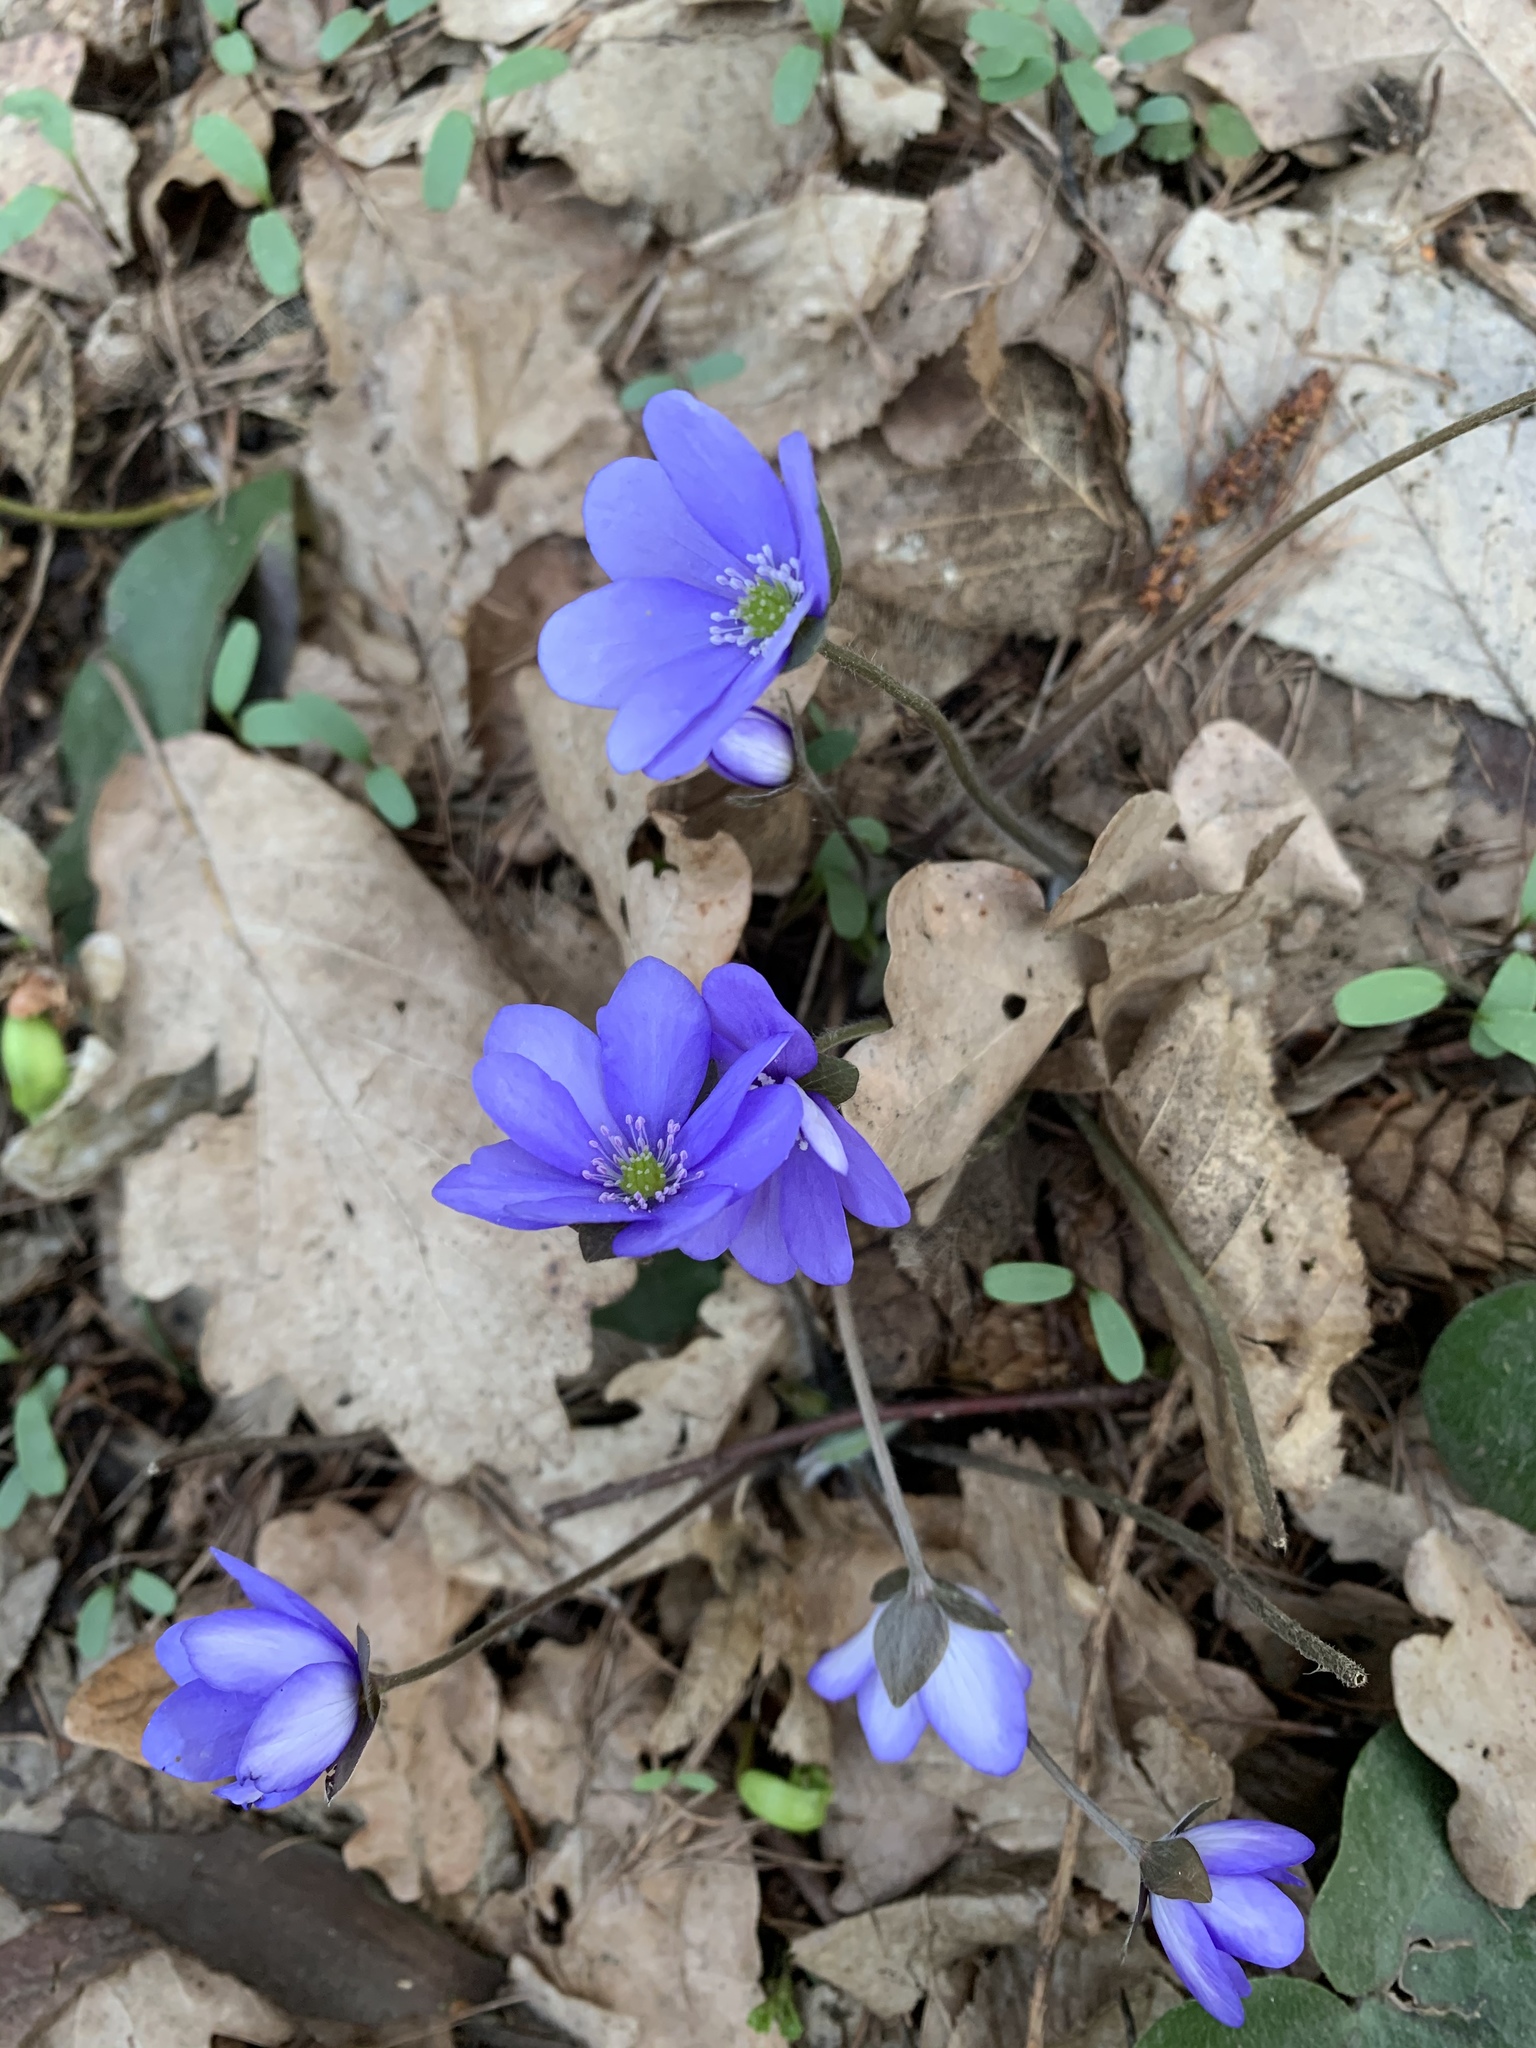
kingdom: Plantae
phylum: Tracheophyta
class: Magnoliopsida
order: Ranunculales
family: Ranunculaceae
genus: Hepatica
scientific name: Hepatica nobilis
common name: Liverleaf
